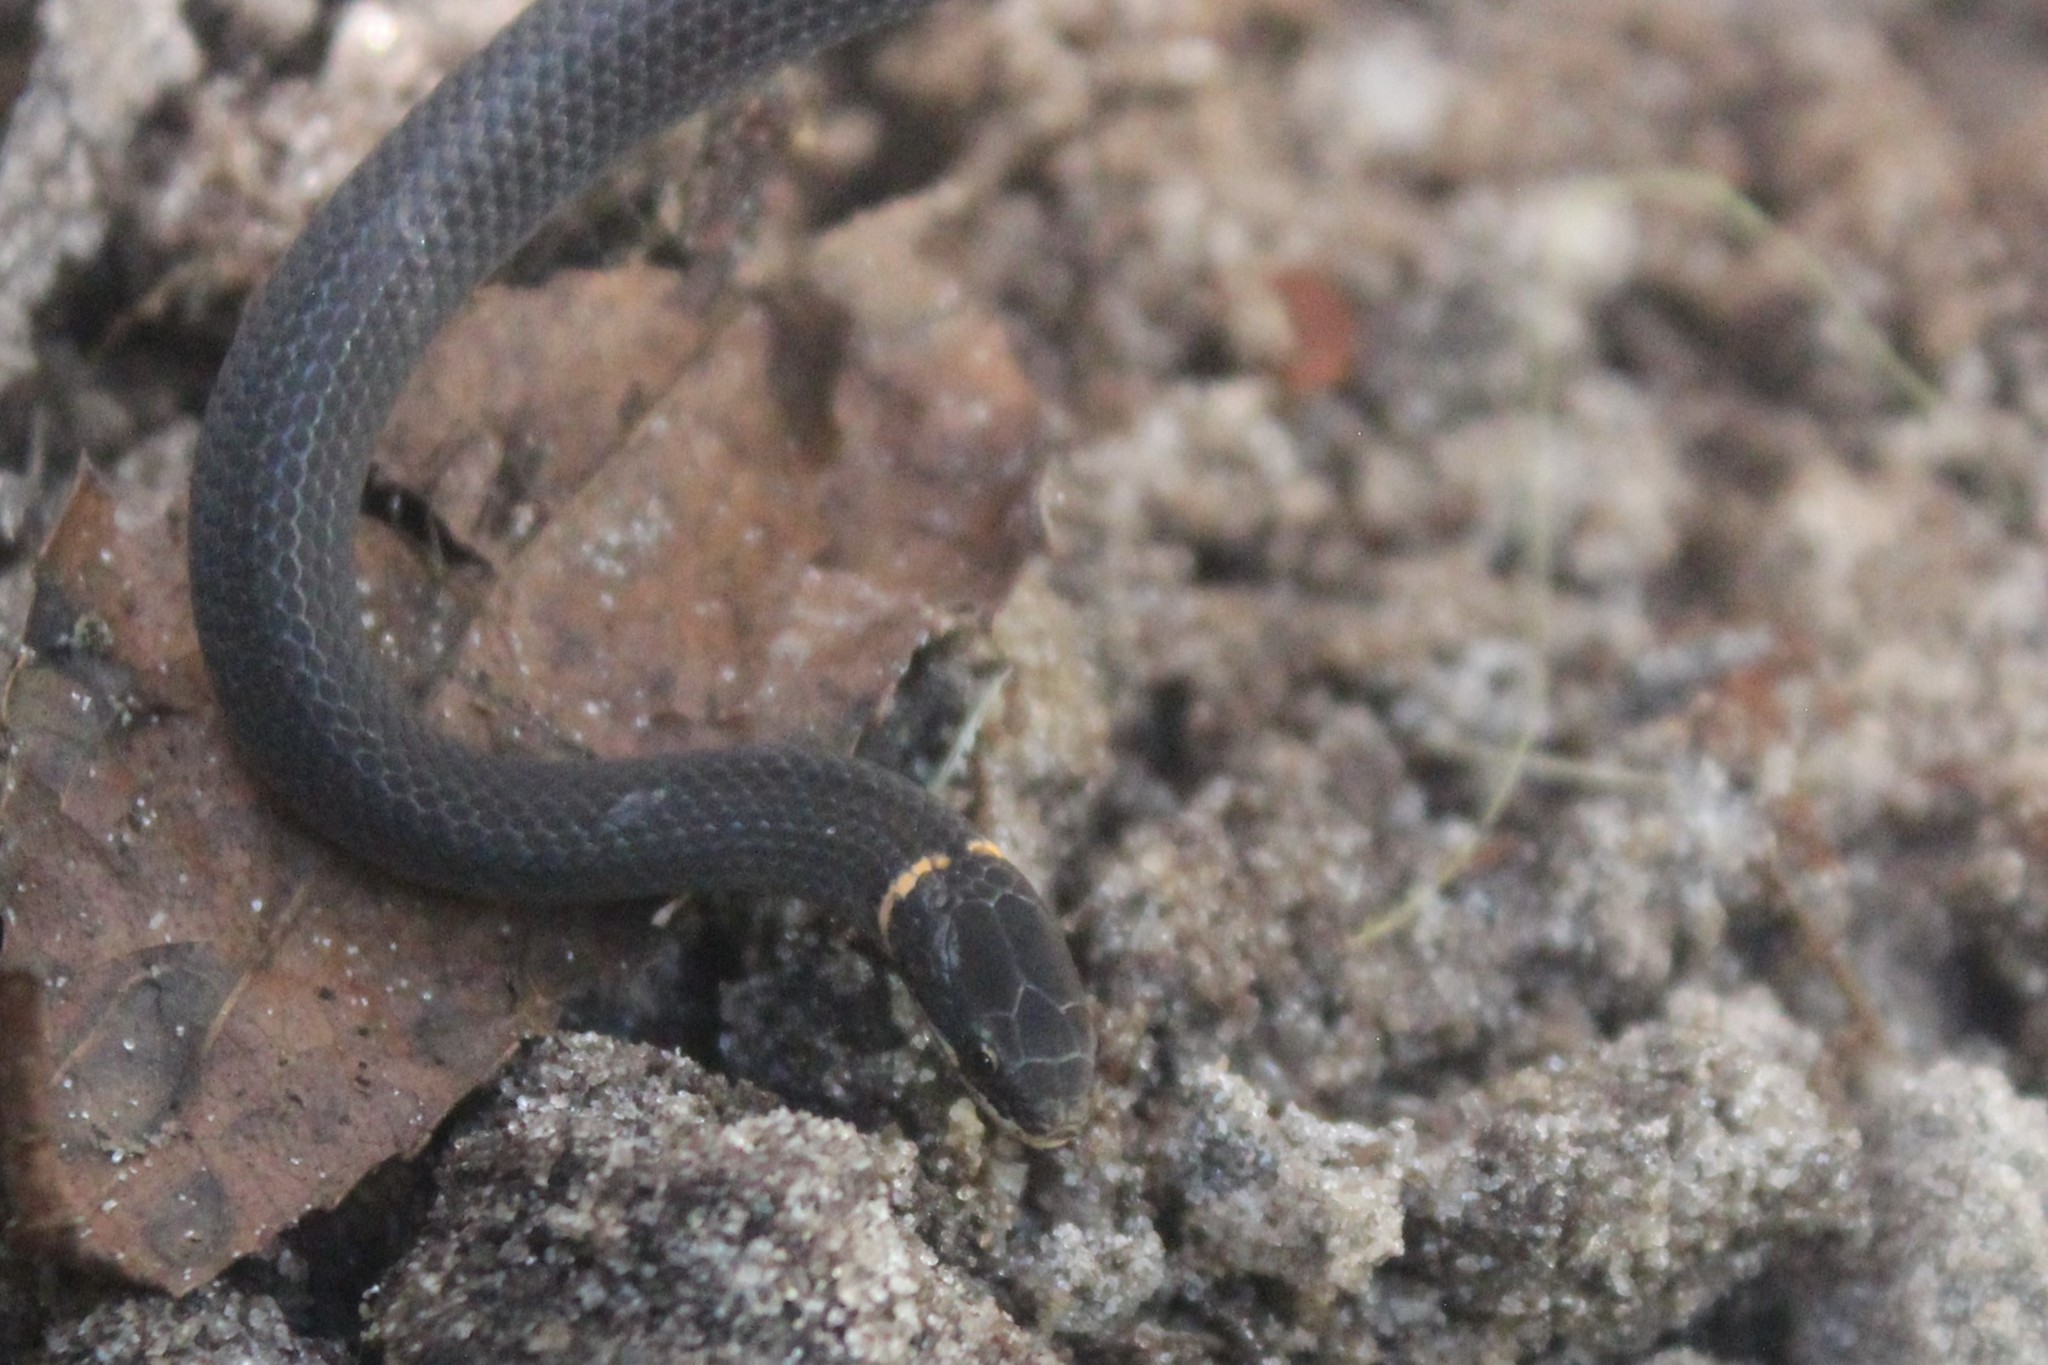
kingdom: Animalia
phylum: Chordata
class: Squamata
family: Colubridae
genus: Diadophis
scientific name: Diadophis punctatus
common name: Ringneck snake
